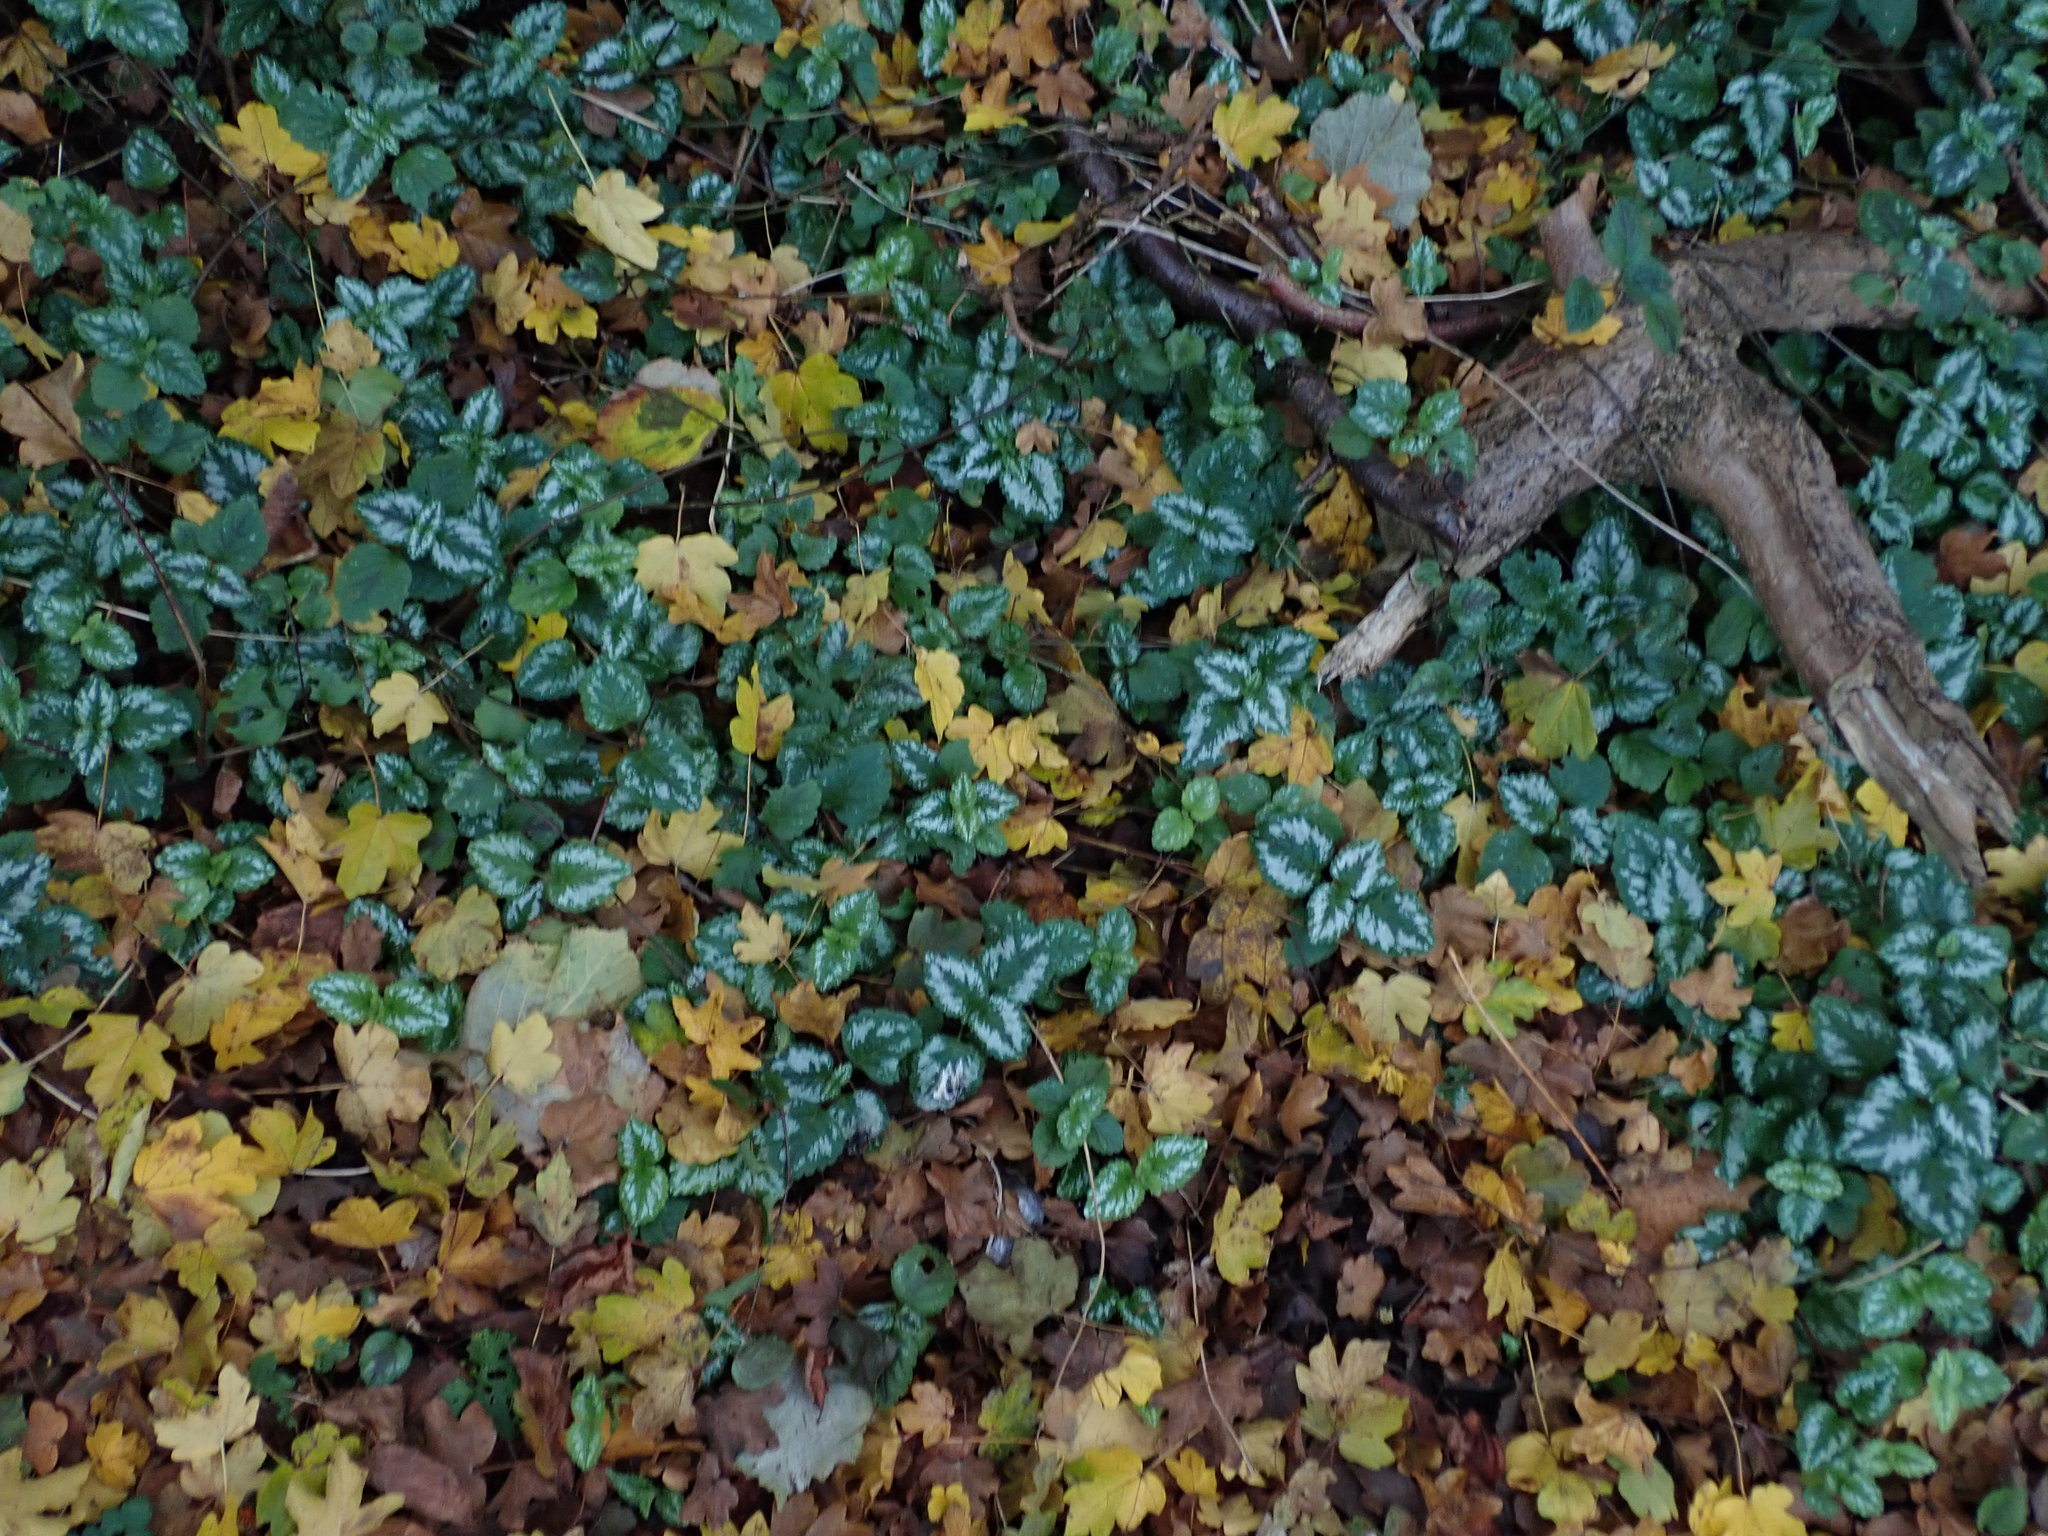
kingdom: Plantae
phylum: Tracheophyta
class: Magnoliopsida
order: Lamiales
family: Lamiaceae
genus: Lamium
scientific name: Lamium galeobdolon
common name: Yellow archangel
